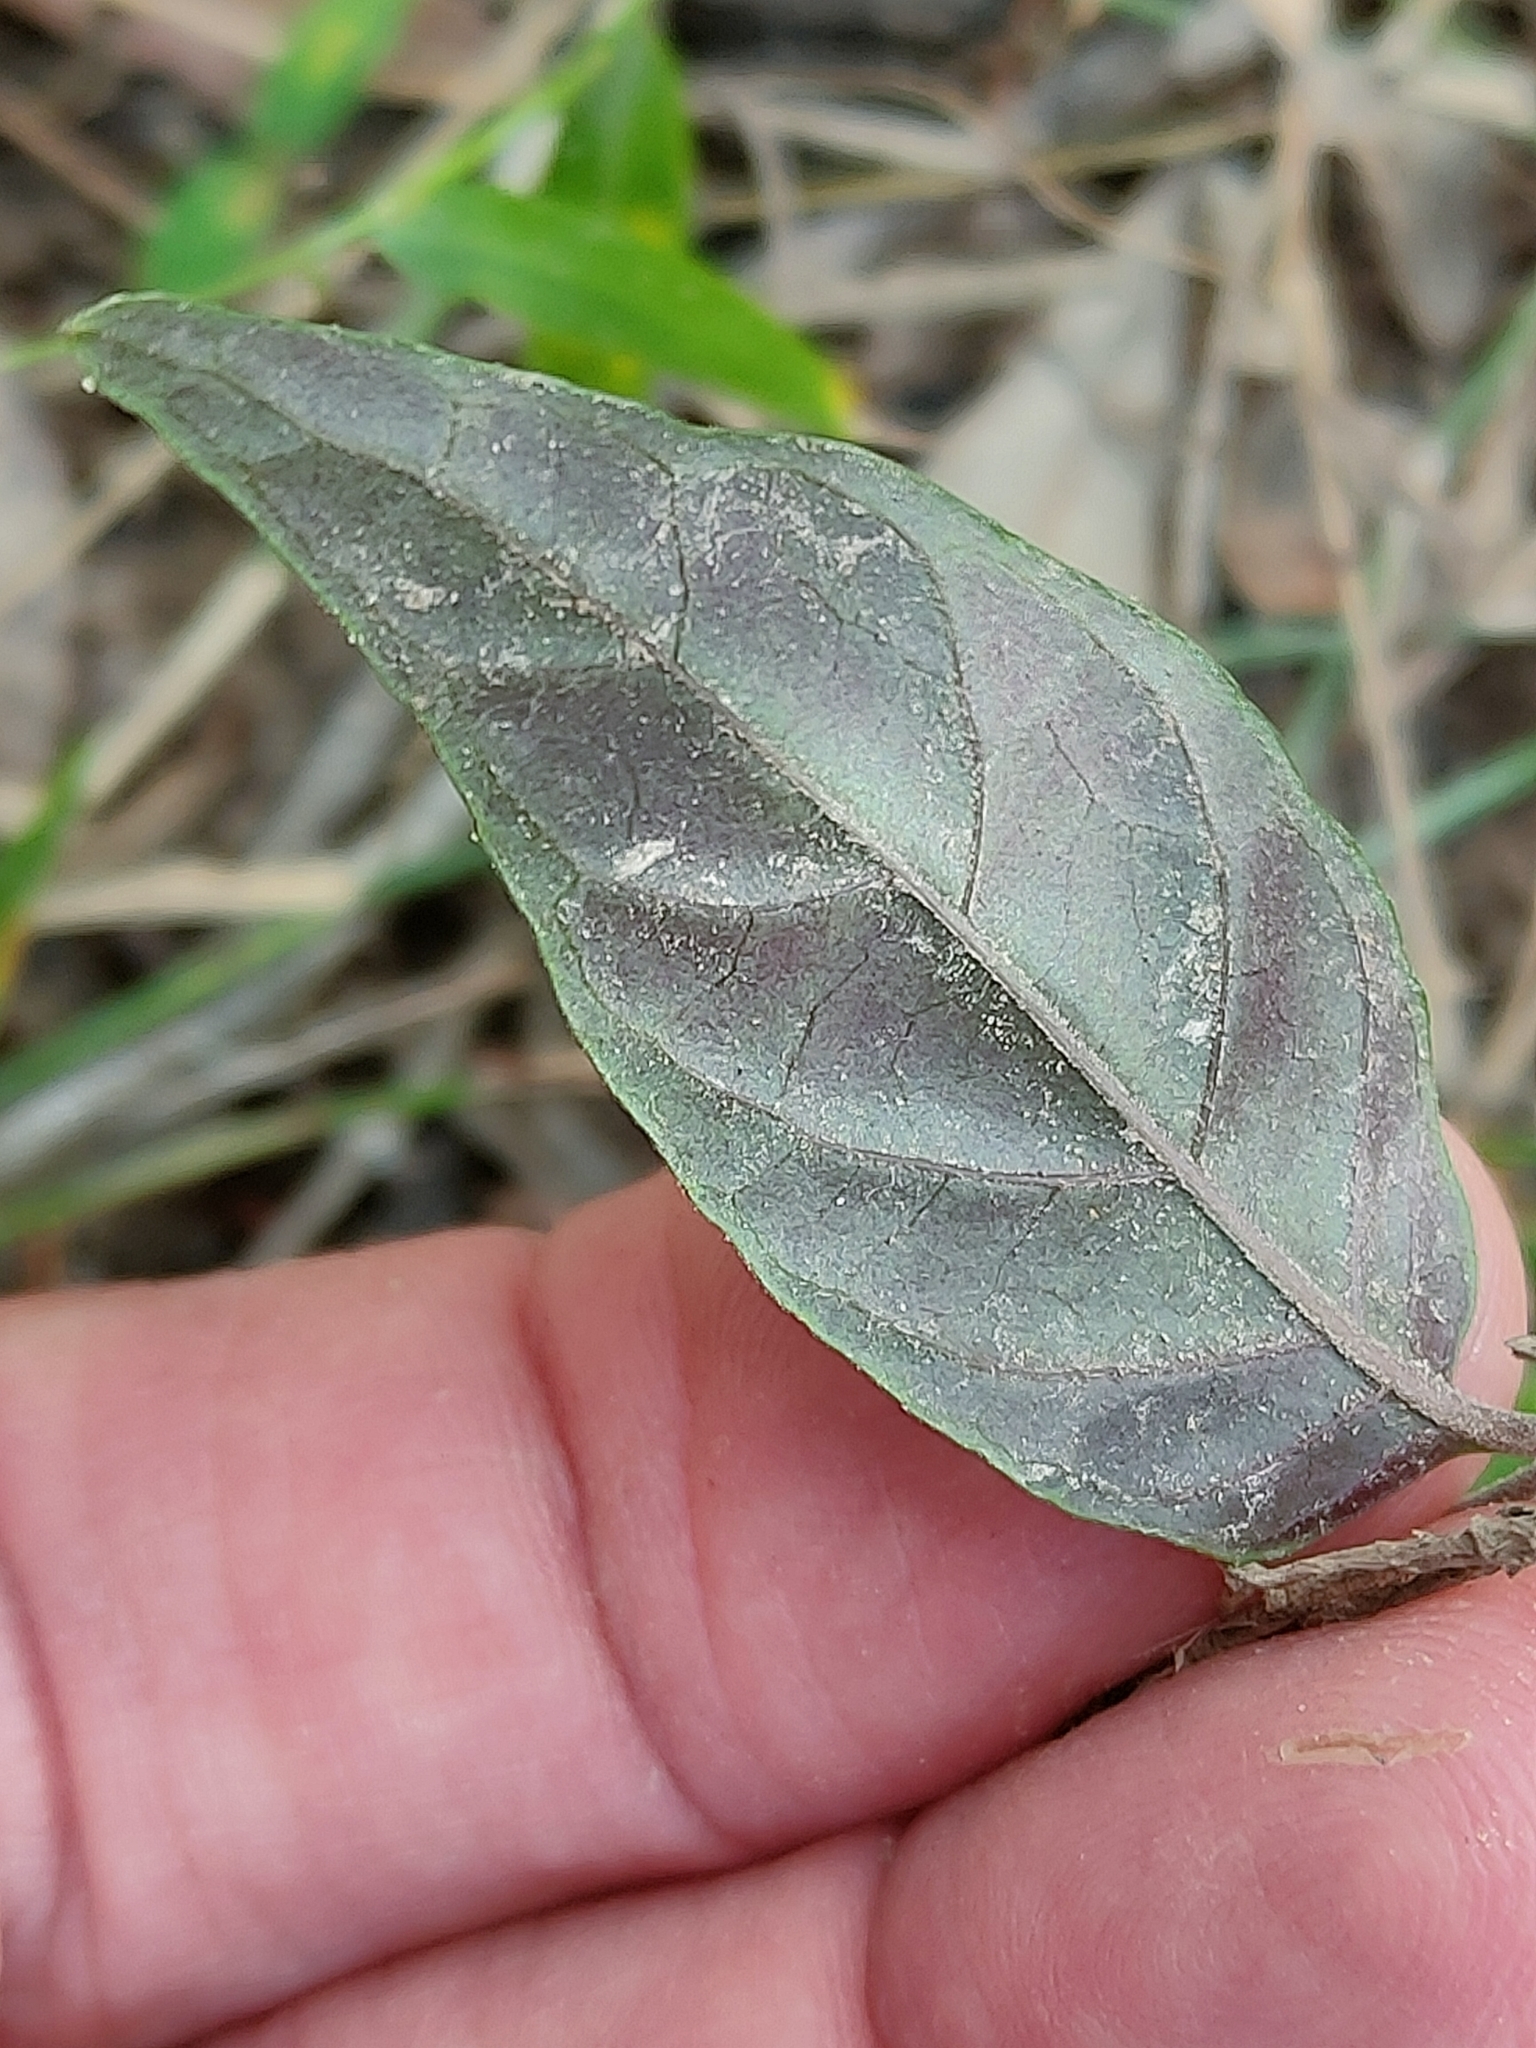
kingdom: Plantae
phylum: Tracheophyta
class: Magnoliopsida
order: Lamiales
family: Acanthaceae
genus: Pseuderanthemum
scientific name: Pseuderanthemum variabile
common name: Night and afternoon
